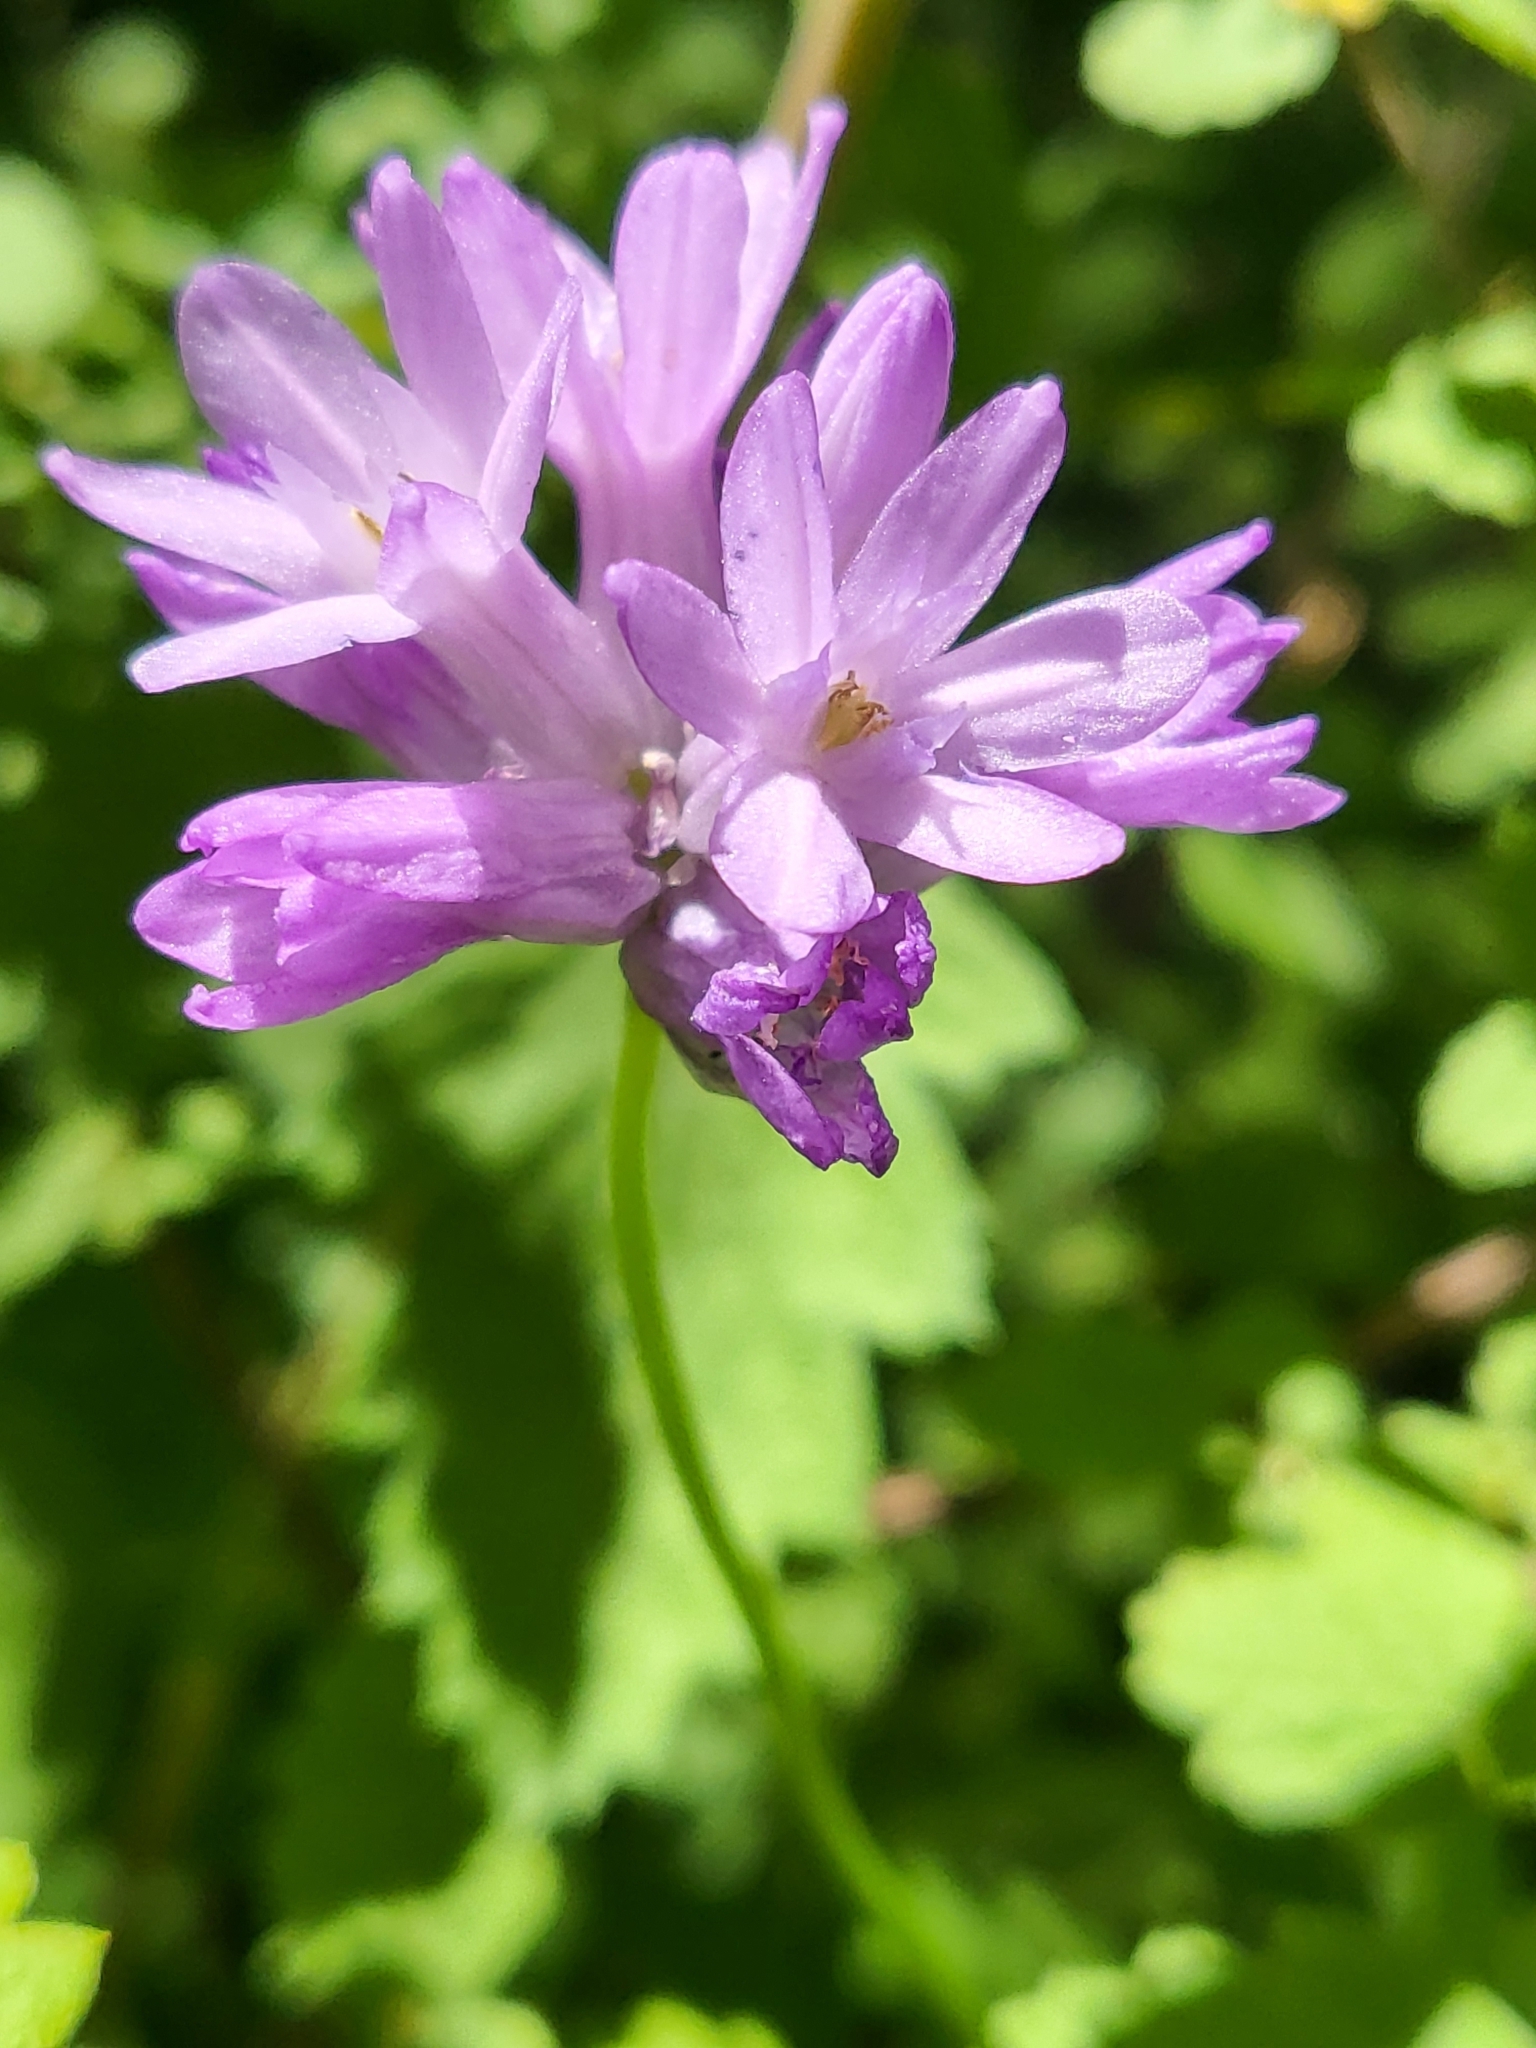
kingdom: Plantae
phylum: Tracheophyta
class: Liliopsida
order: Asparagales
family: Asparagaceae
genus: Dichelostemma
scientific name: Dichelostemma congestum
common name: Fork-tooth ookow
